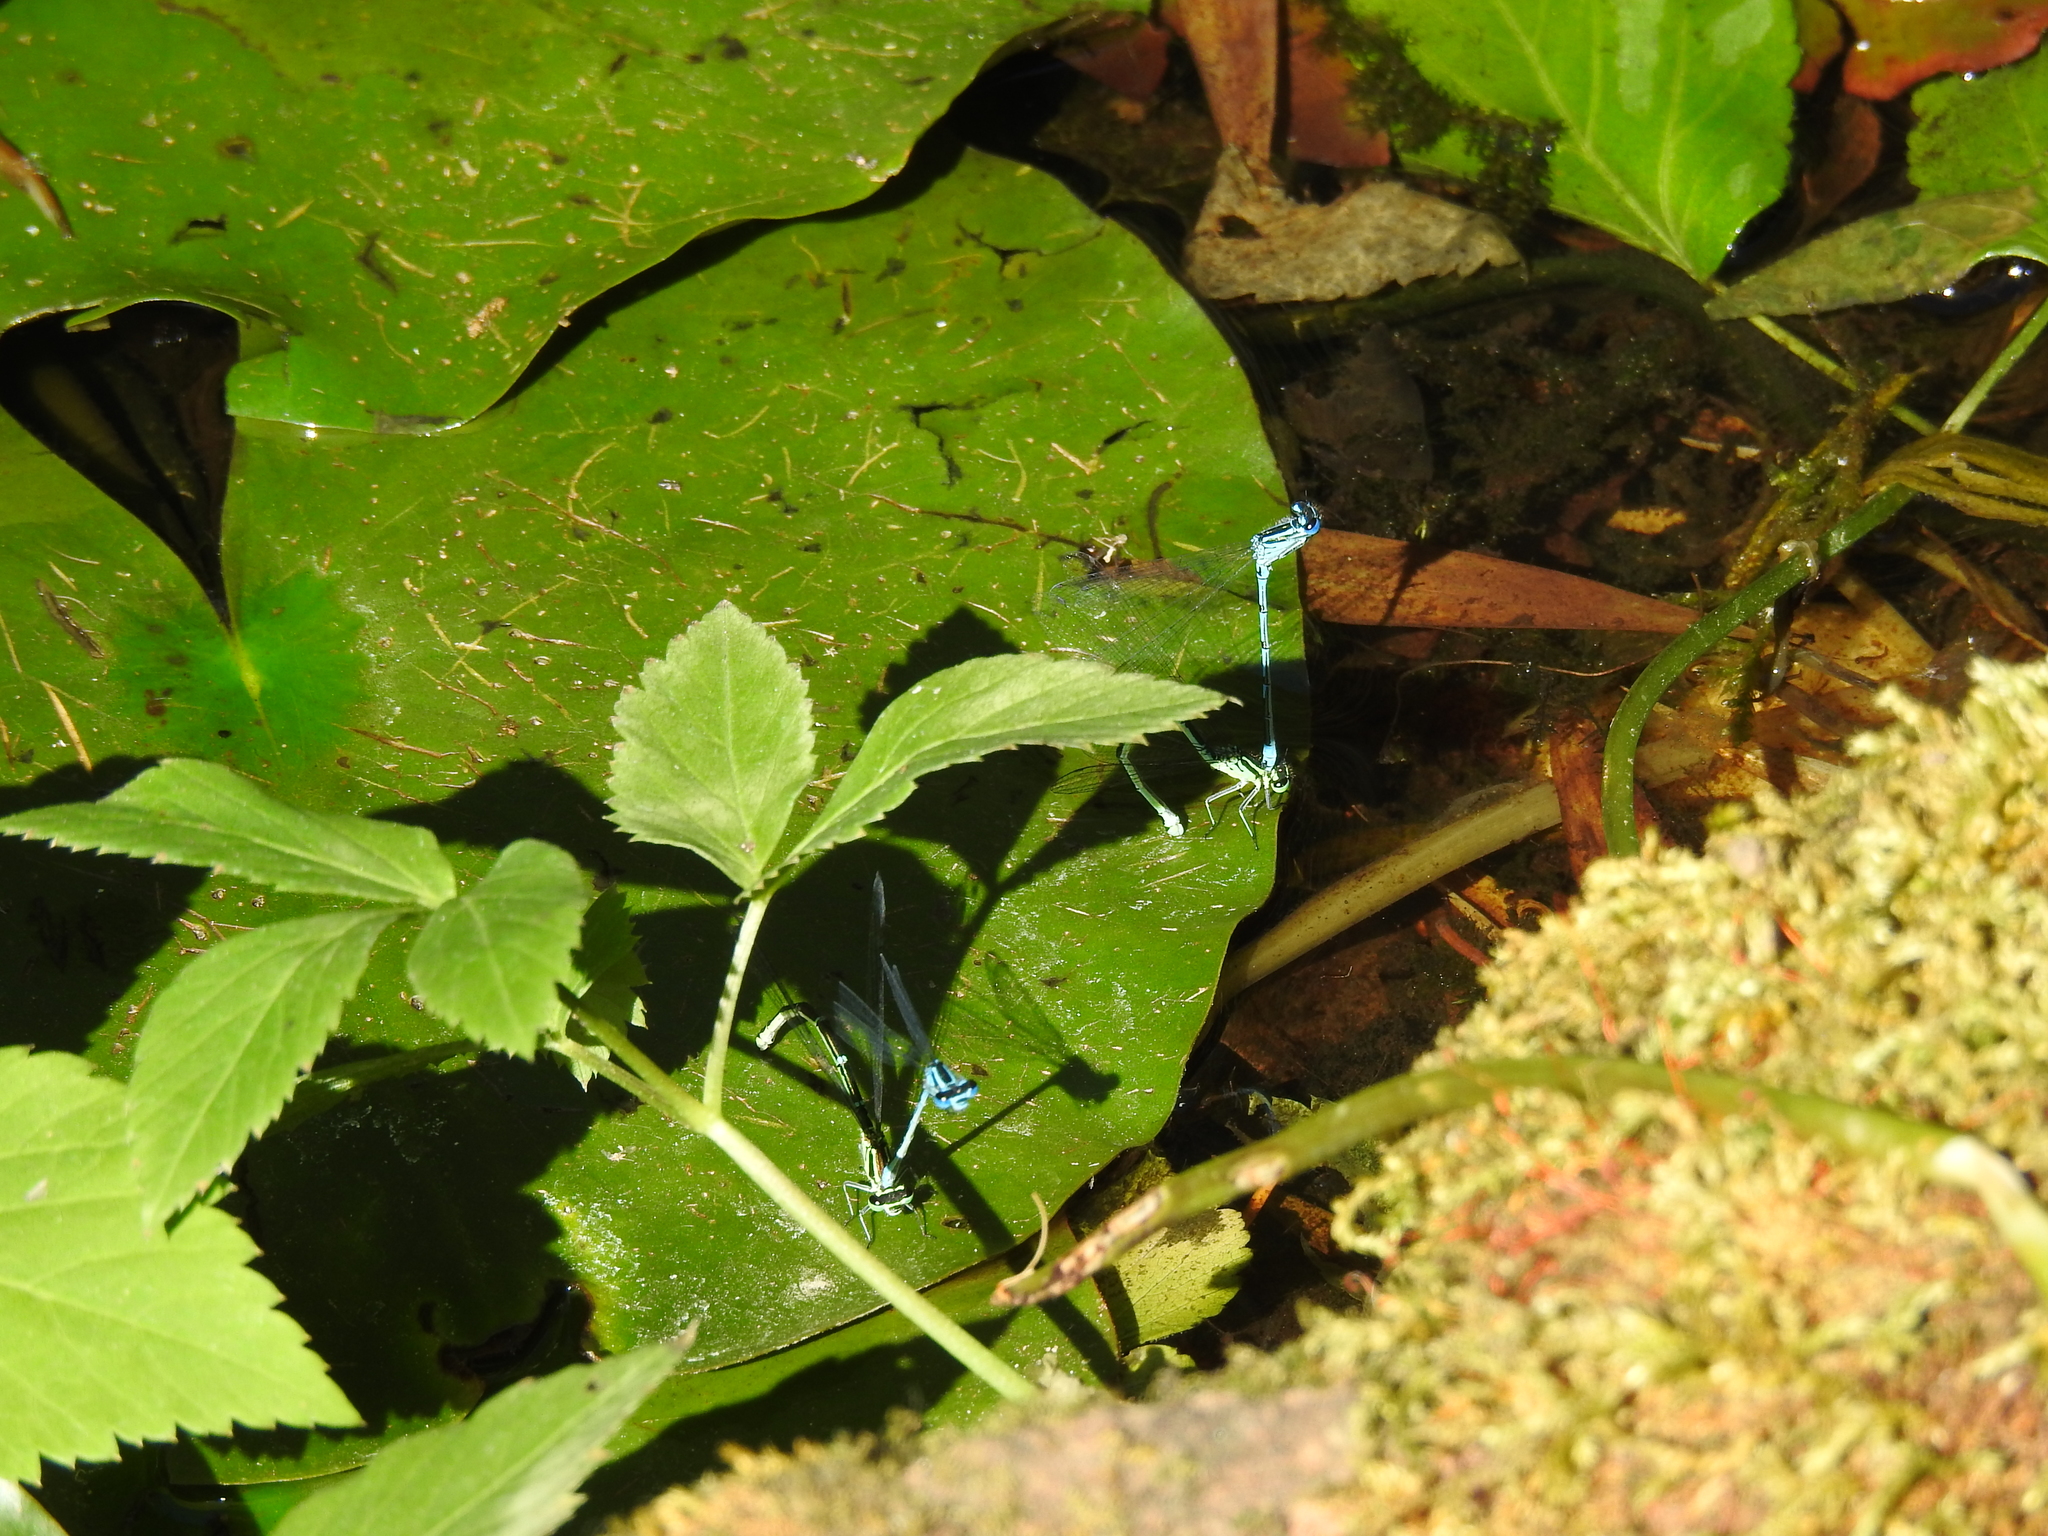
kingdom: Animalia
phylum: Arthropoda
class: Insecta
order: Odonata
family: Coenagrionidae
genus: Coenagrion
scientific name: Coenagrion puella
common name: Azure damselfly
